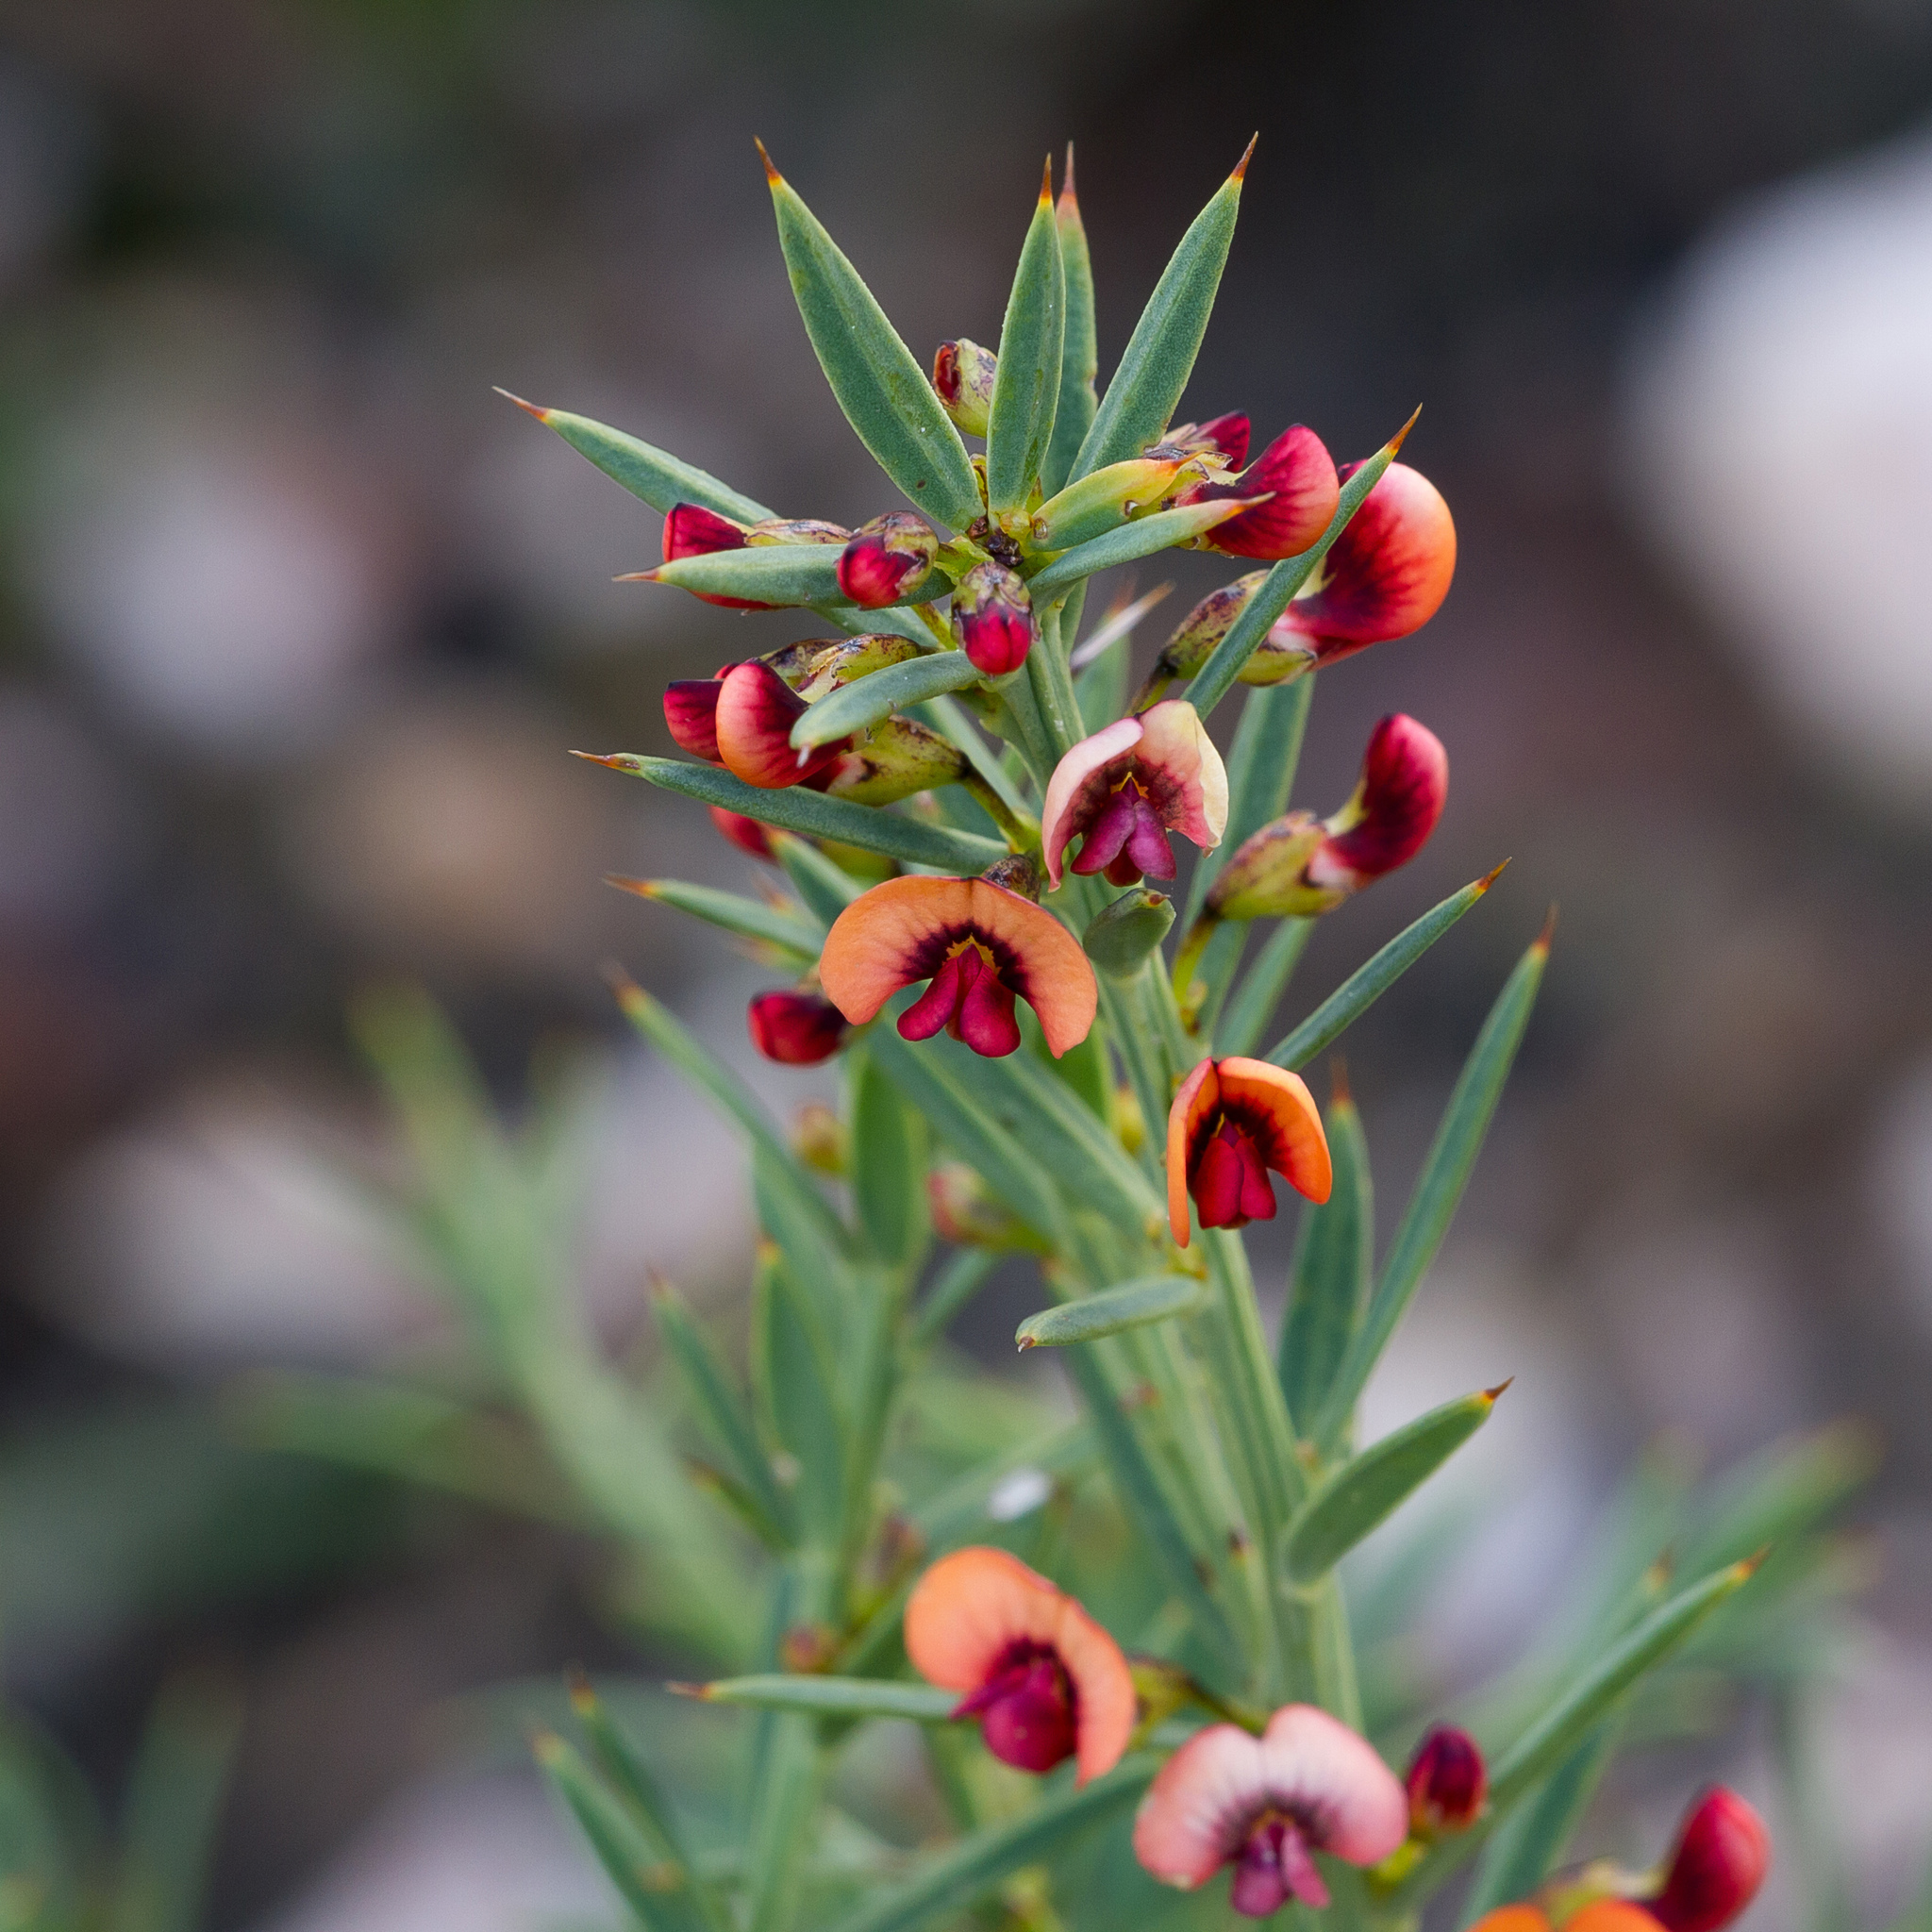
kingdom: Plantae
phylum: Tracheophyta
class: Magnoliopsida
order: Fabales
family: Fabaceae
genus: Daviesia
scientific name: Daviesia ulicifolia
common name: Gorse bitter-pea
